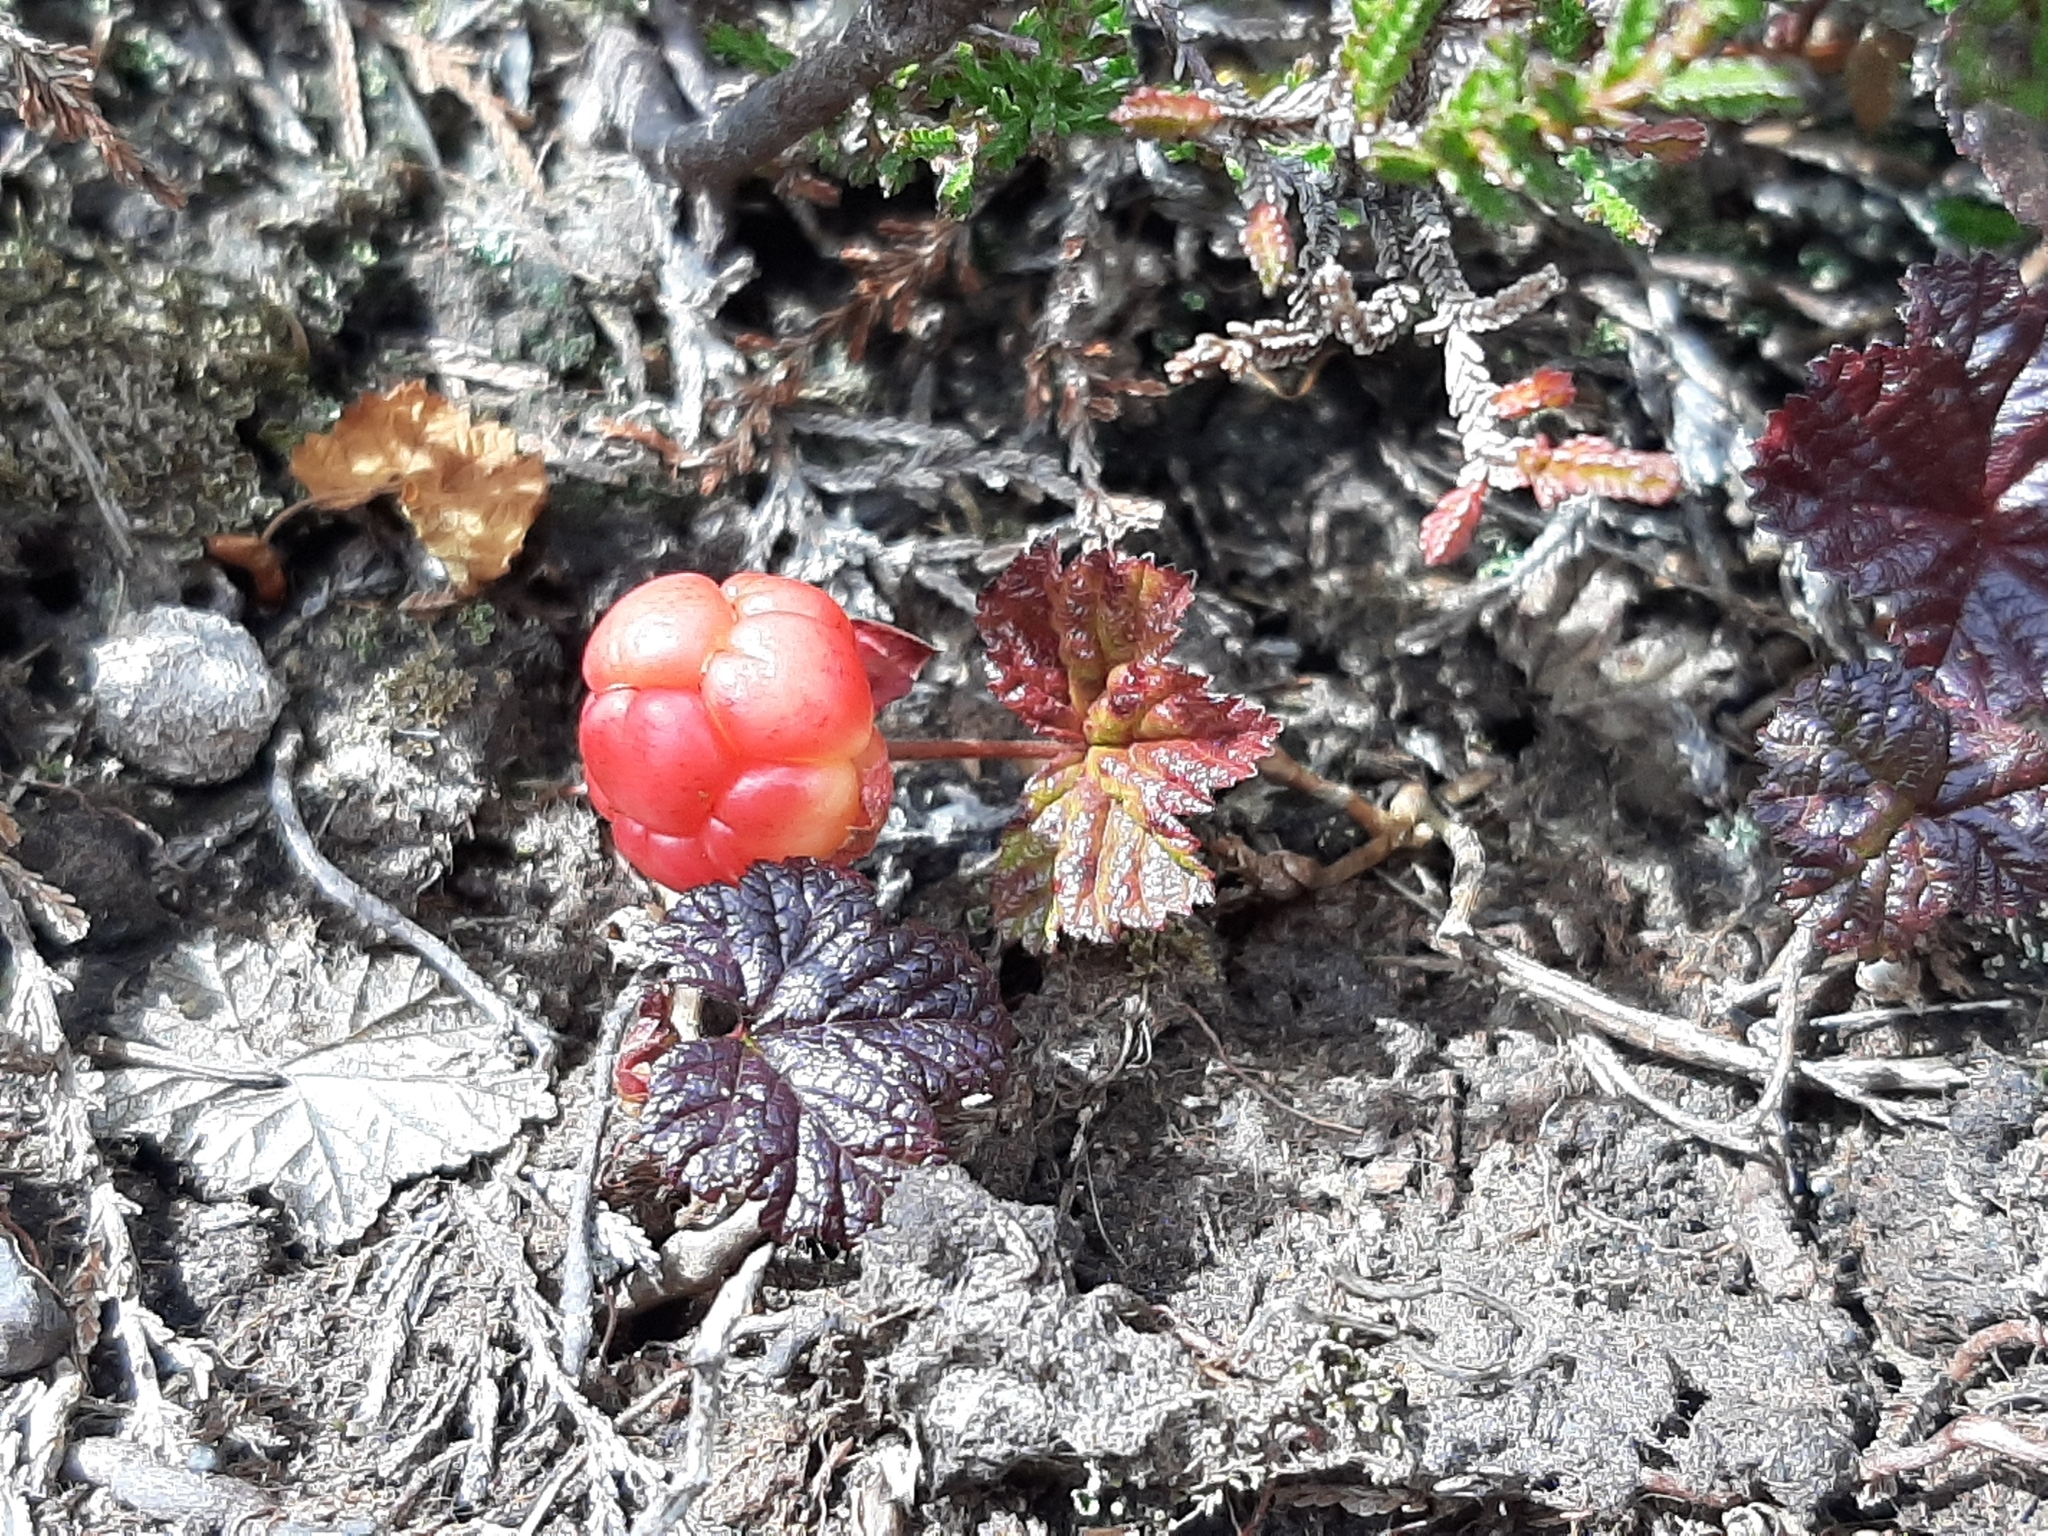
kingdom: Plantae
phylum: Tracheophyta
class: Magnoliopsida
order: Rosales
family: Rosaceae
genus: Rubus
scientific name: Rubus chamaemorus
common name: Cloudberry
